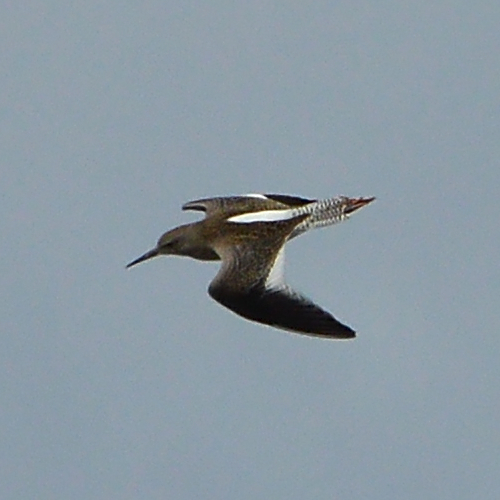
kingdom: Animalia
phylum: Chordata
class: Aves
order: Charadriiformes
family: Scolopacidae
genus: Tringa
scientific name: Tringa totanus
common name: Common redshank
